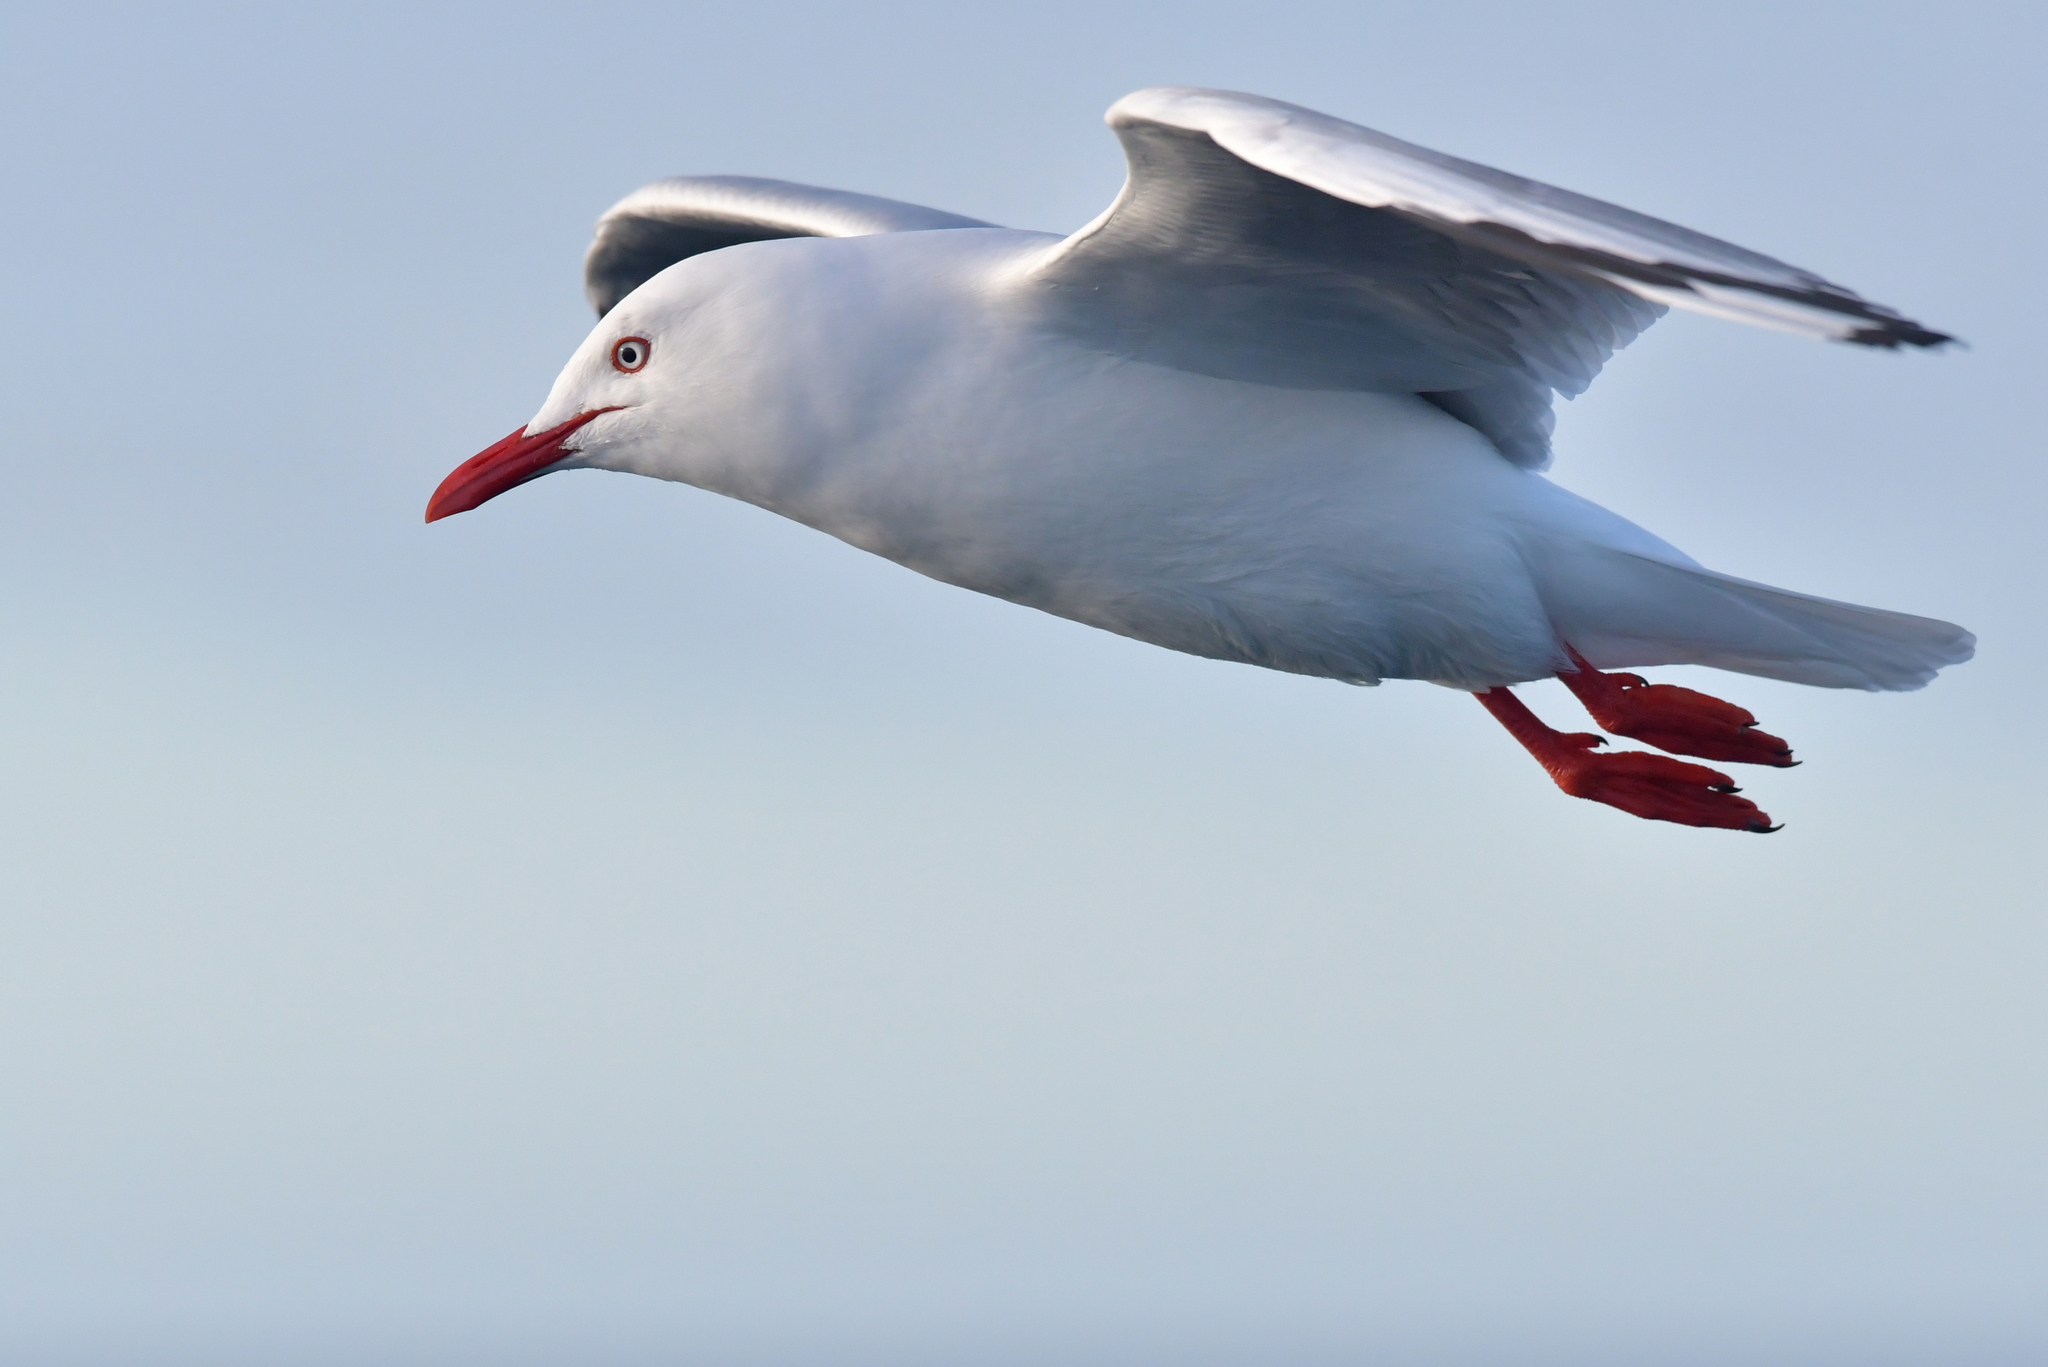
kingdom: Animalia
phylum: Chordata
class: Aves
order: Charadriiformes
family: Laridae
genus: Chroicocephalus
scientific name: Chroicocephalus novaehollandiae
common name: Silver gull
